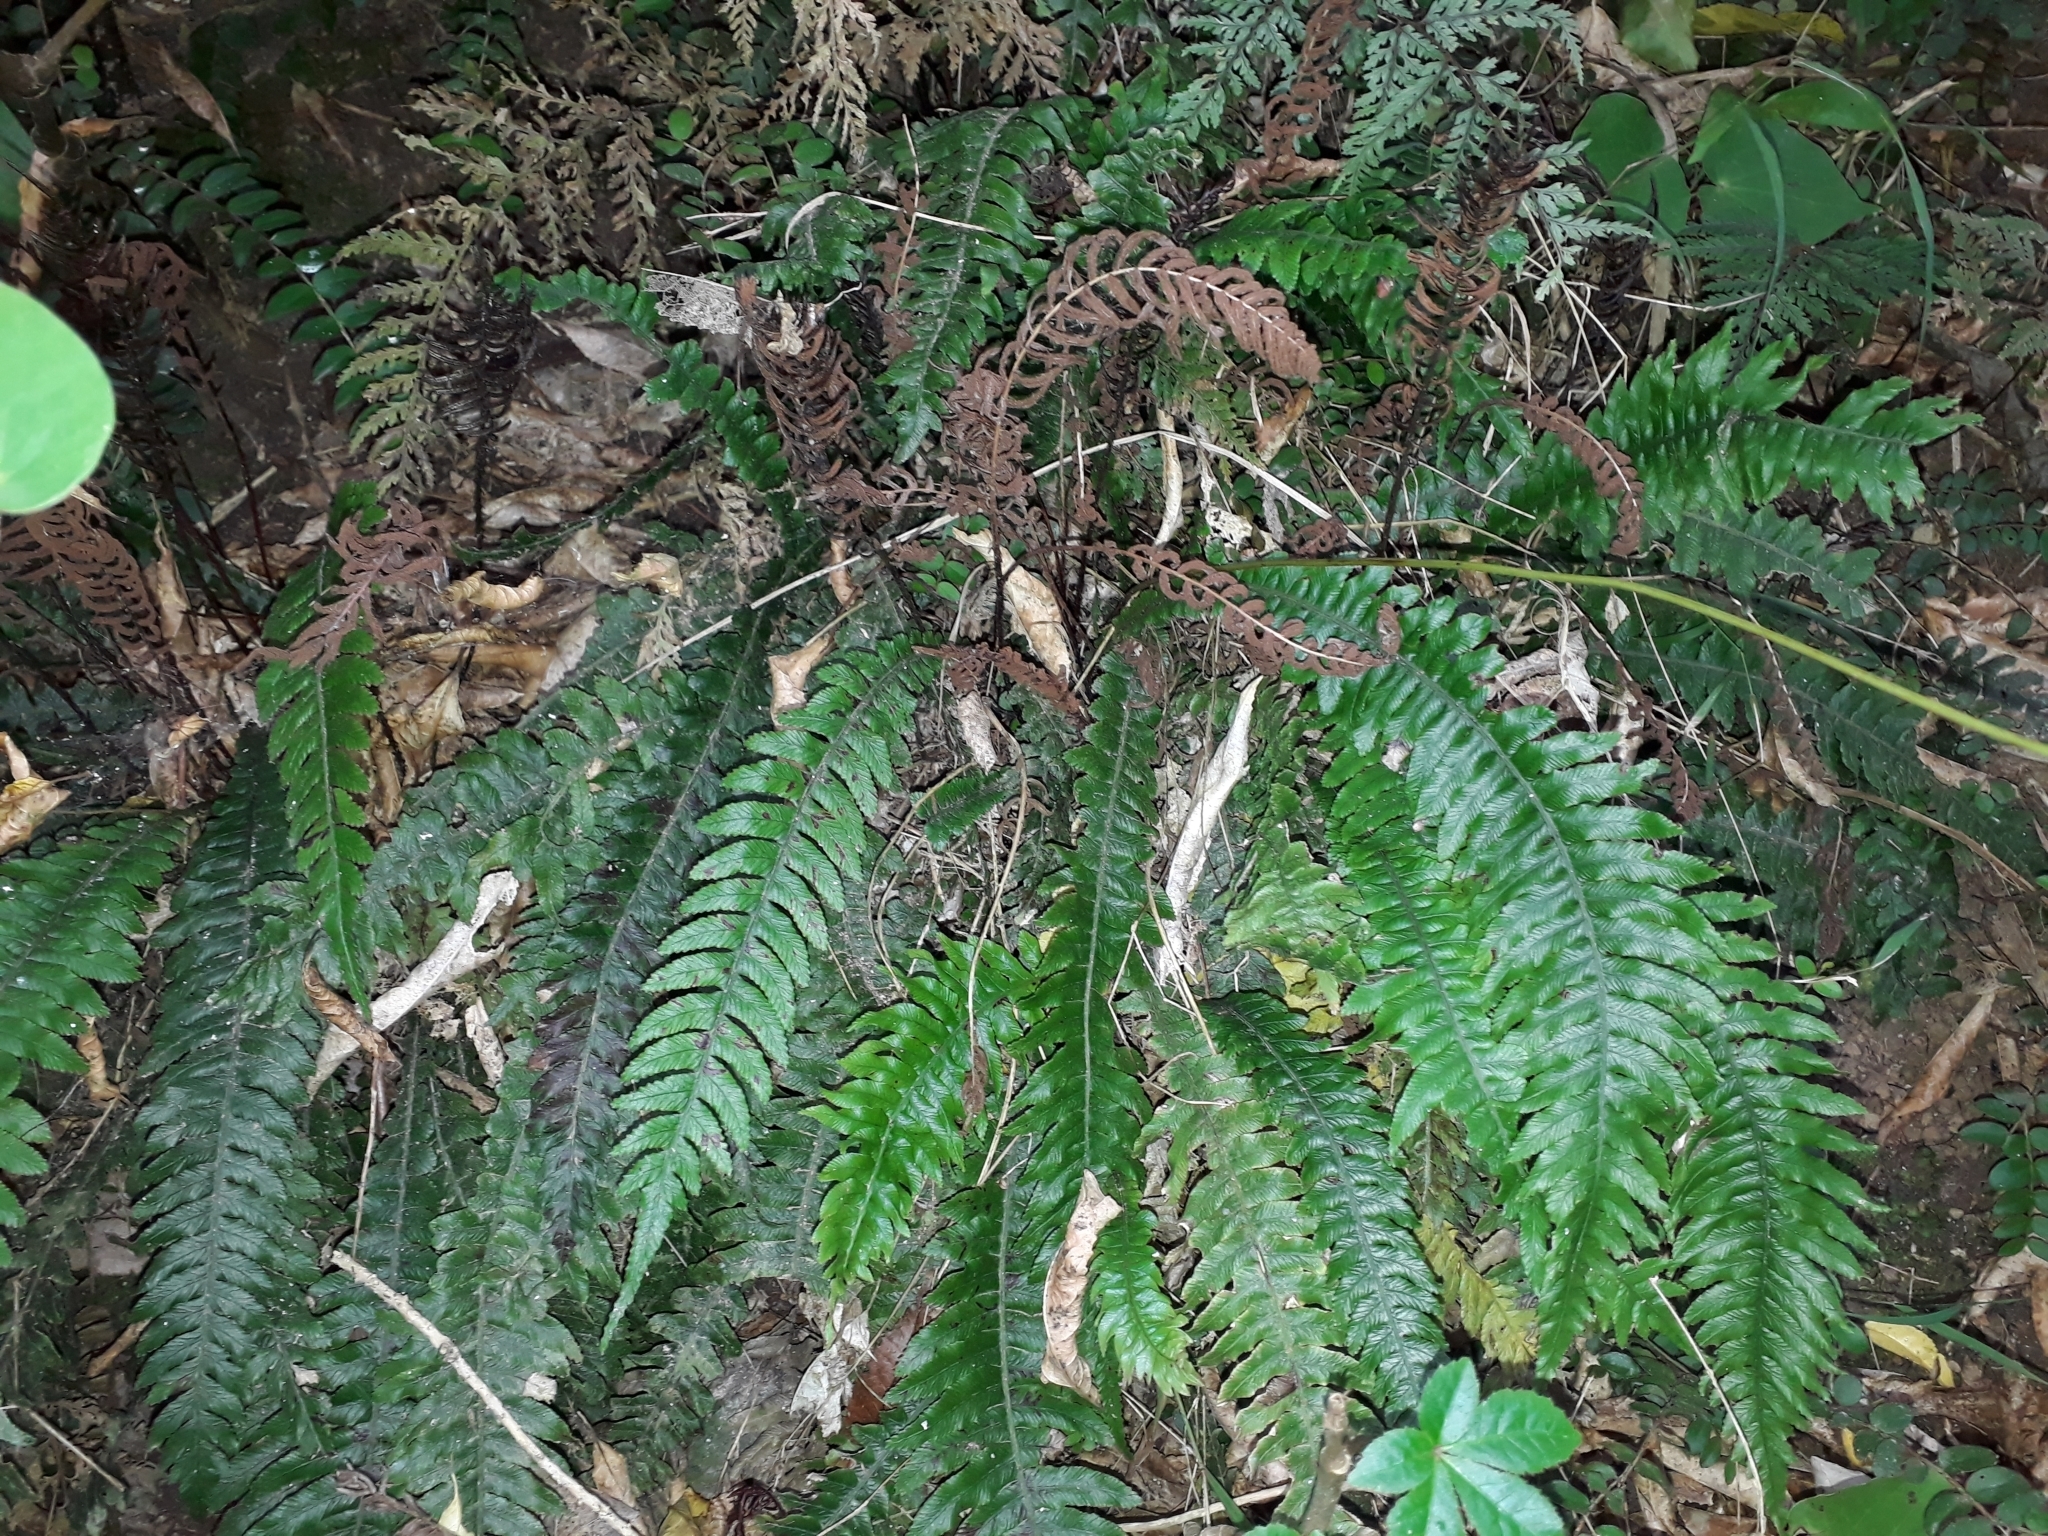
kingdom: Plantae
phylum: Tracheophyta
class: Polypodiopsida
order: Polypodiales
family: Blechnaceae
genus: Austroblechnum
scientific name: Austroblechnum lanceolatum
